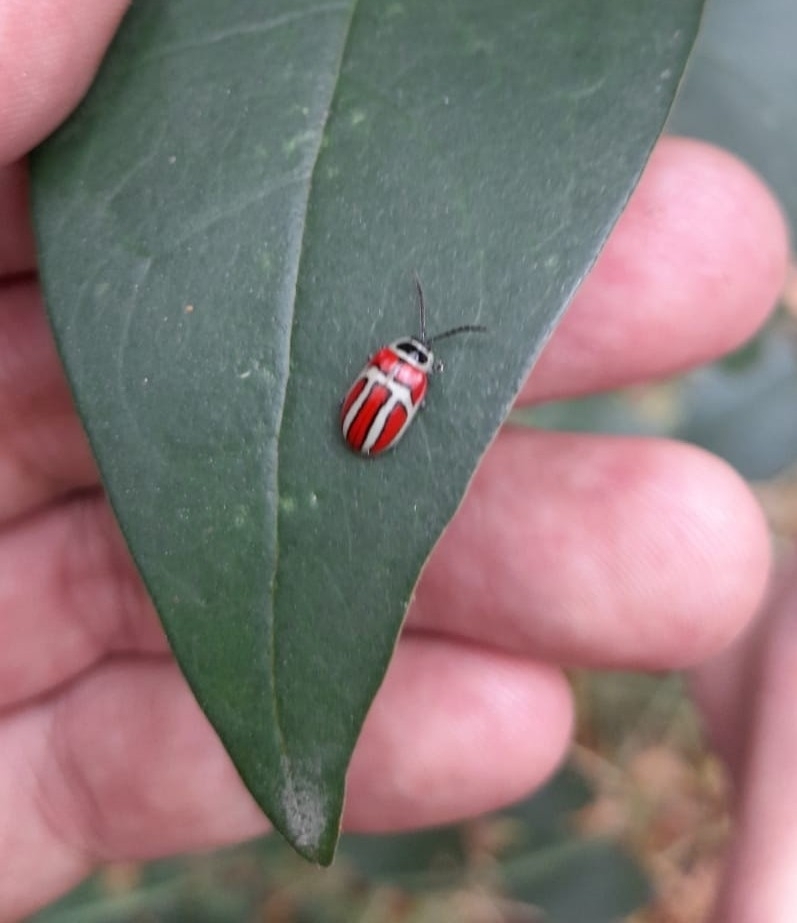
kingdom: Animalia
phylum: Arthropoda
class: Insecta
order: Coleoptera
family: Chrysomelidae
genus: Asphaera
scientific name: Asphaera
